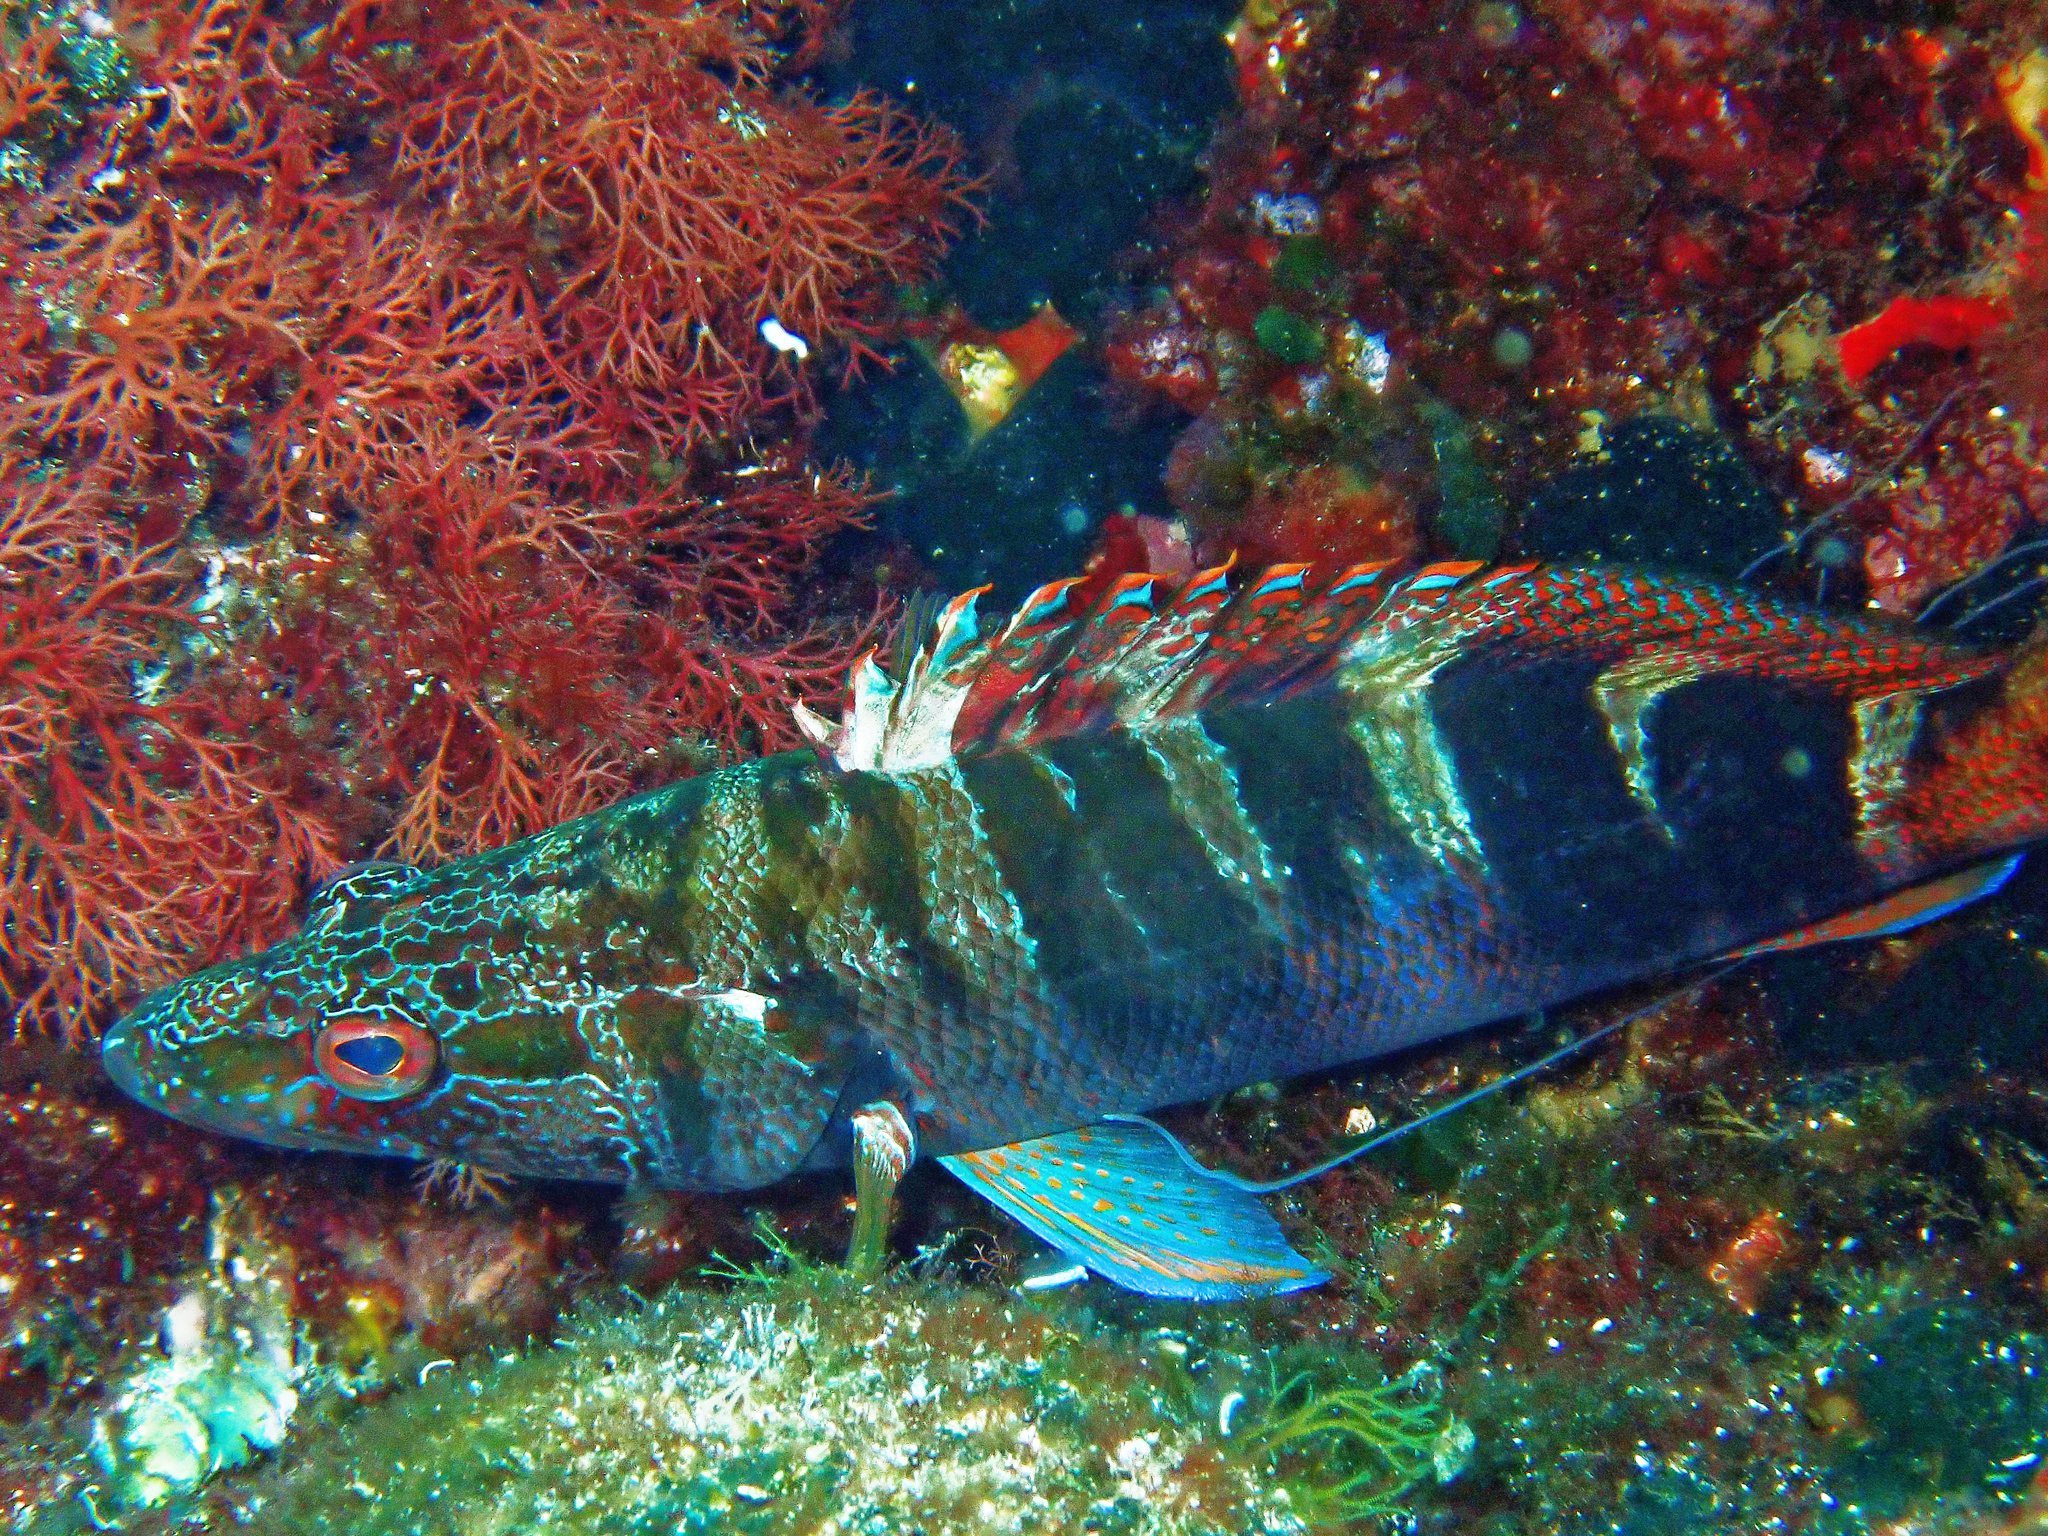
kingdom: Animalia
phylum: Chordata
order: Perciformes
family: Serranidae
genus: Serranus
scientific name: Serranus scriba
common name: Painted comber
